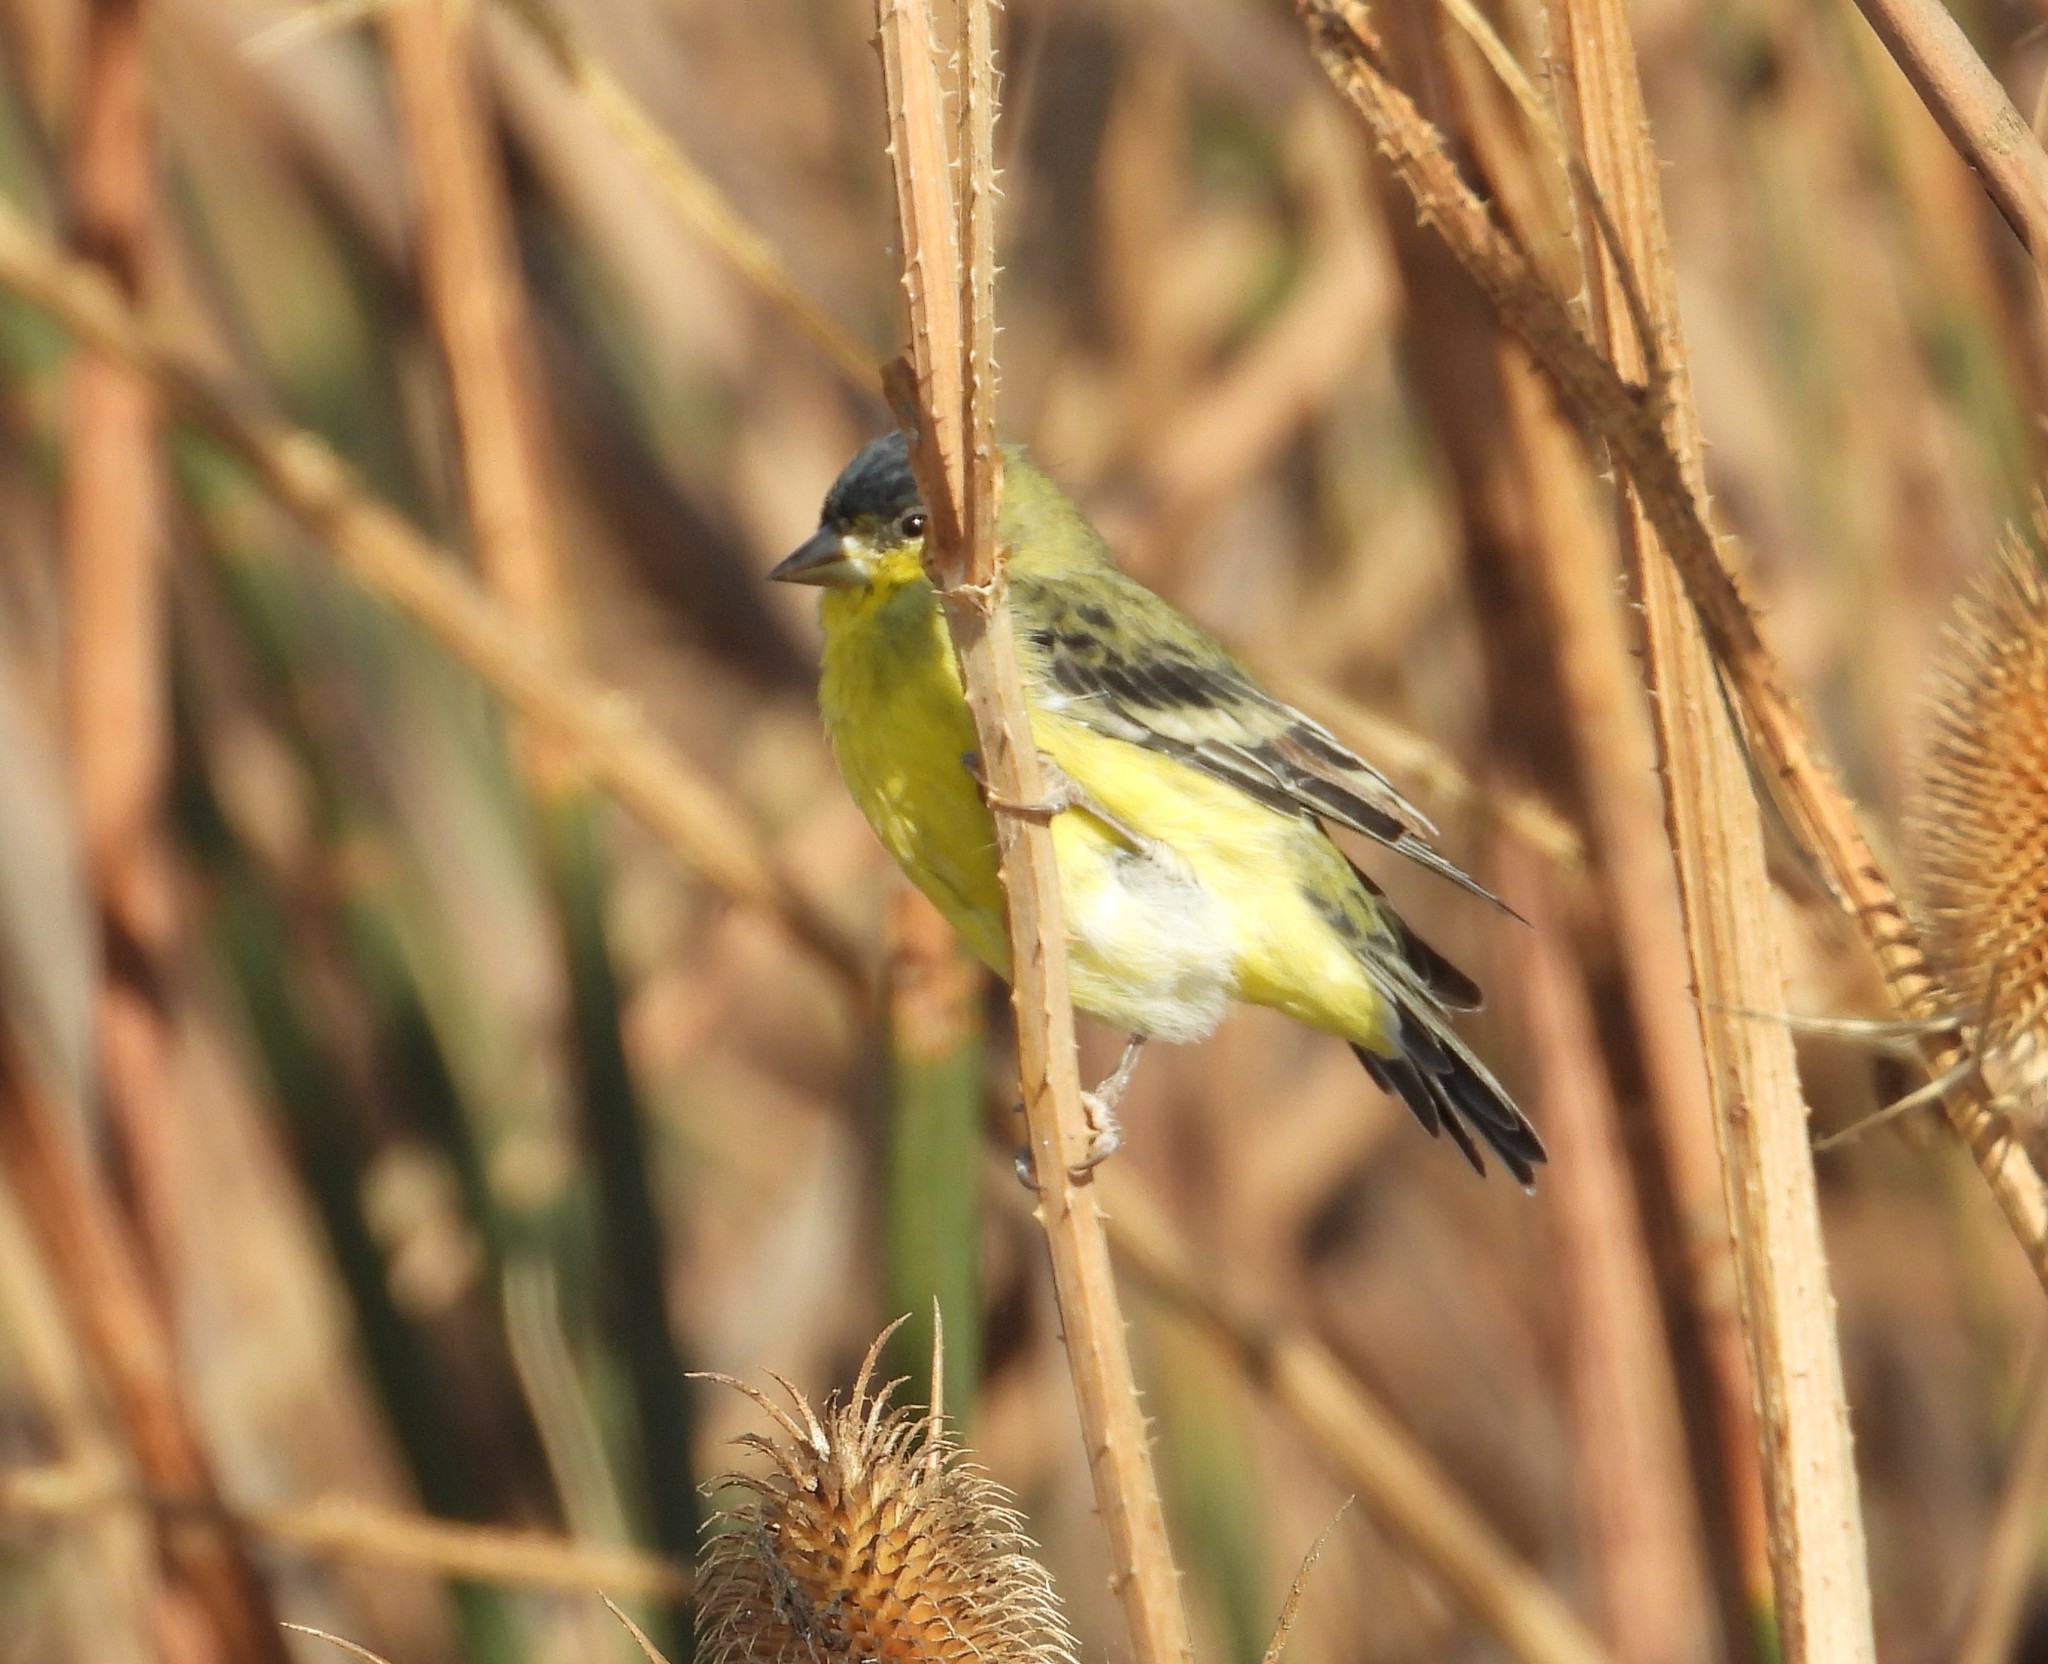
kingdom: Animalia
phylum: Chordata
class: Aves
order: Passeriformes
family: Fringillidae
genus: Spinus
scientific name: Spinus psaltria
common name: Lesser goldfinch
